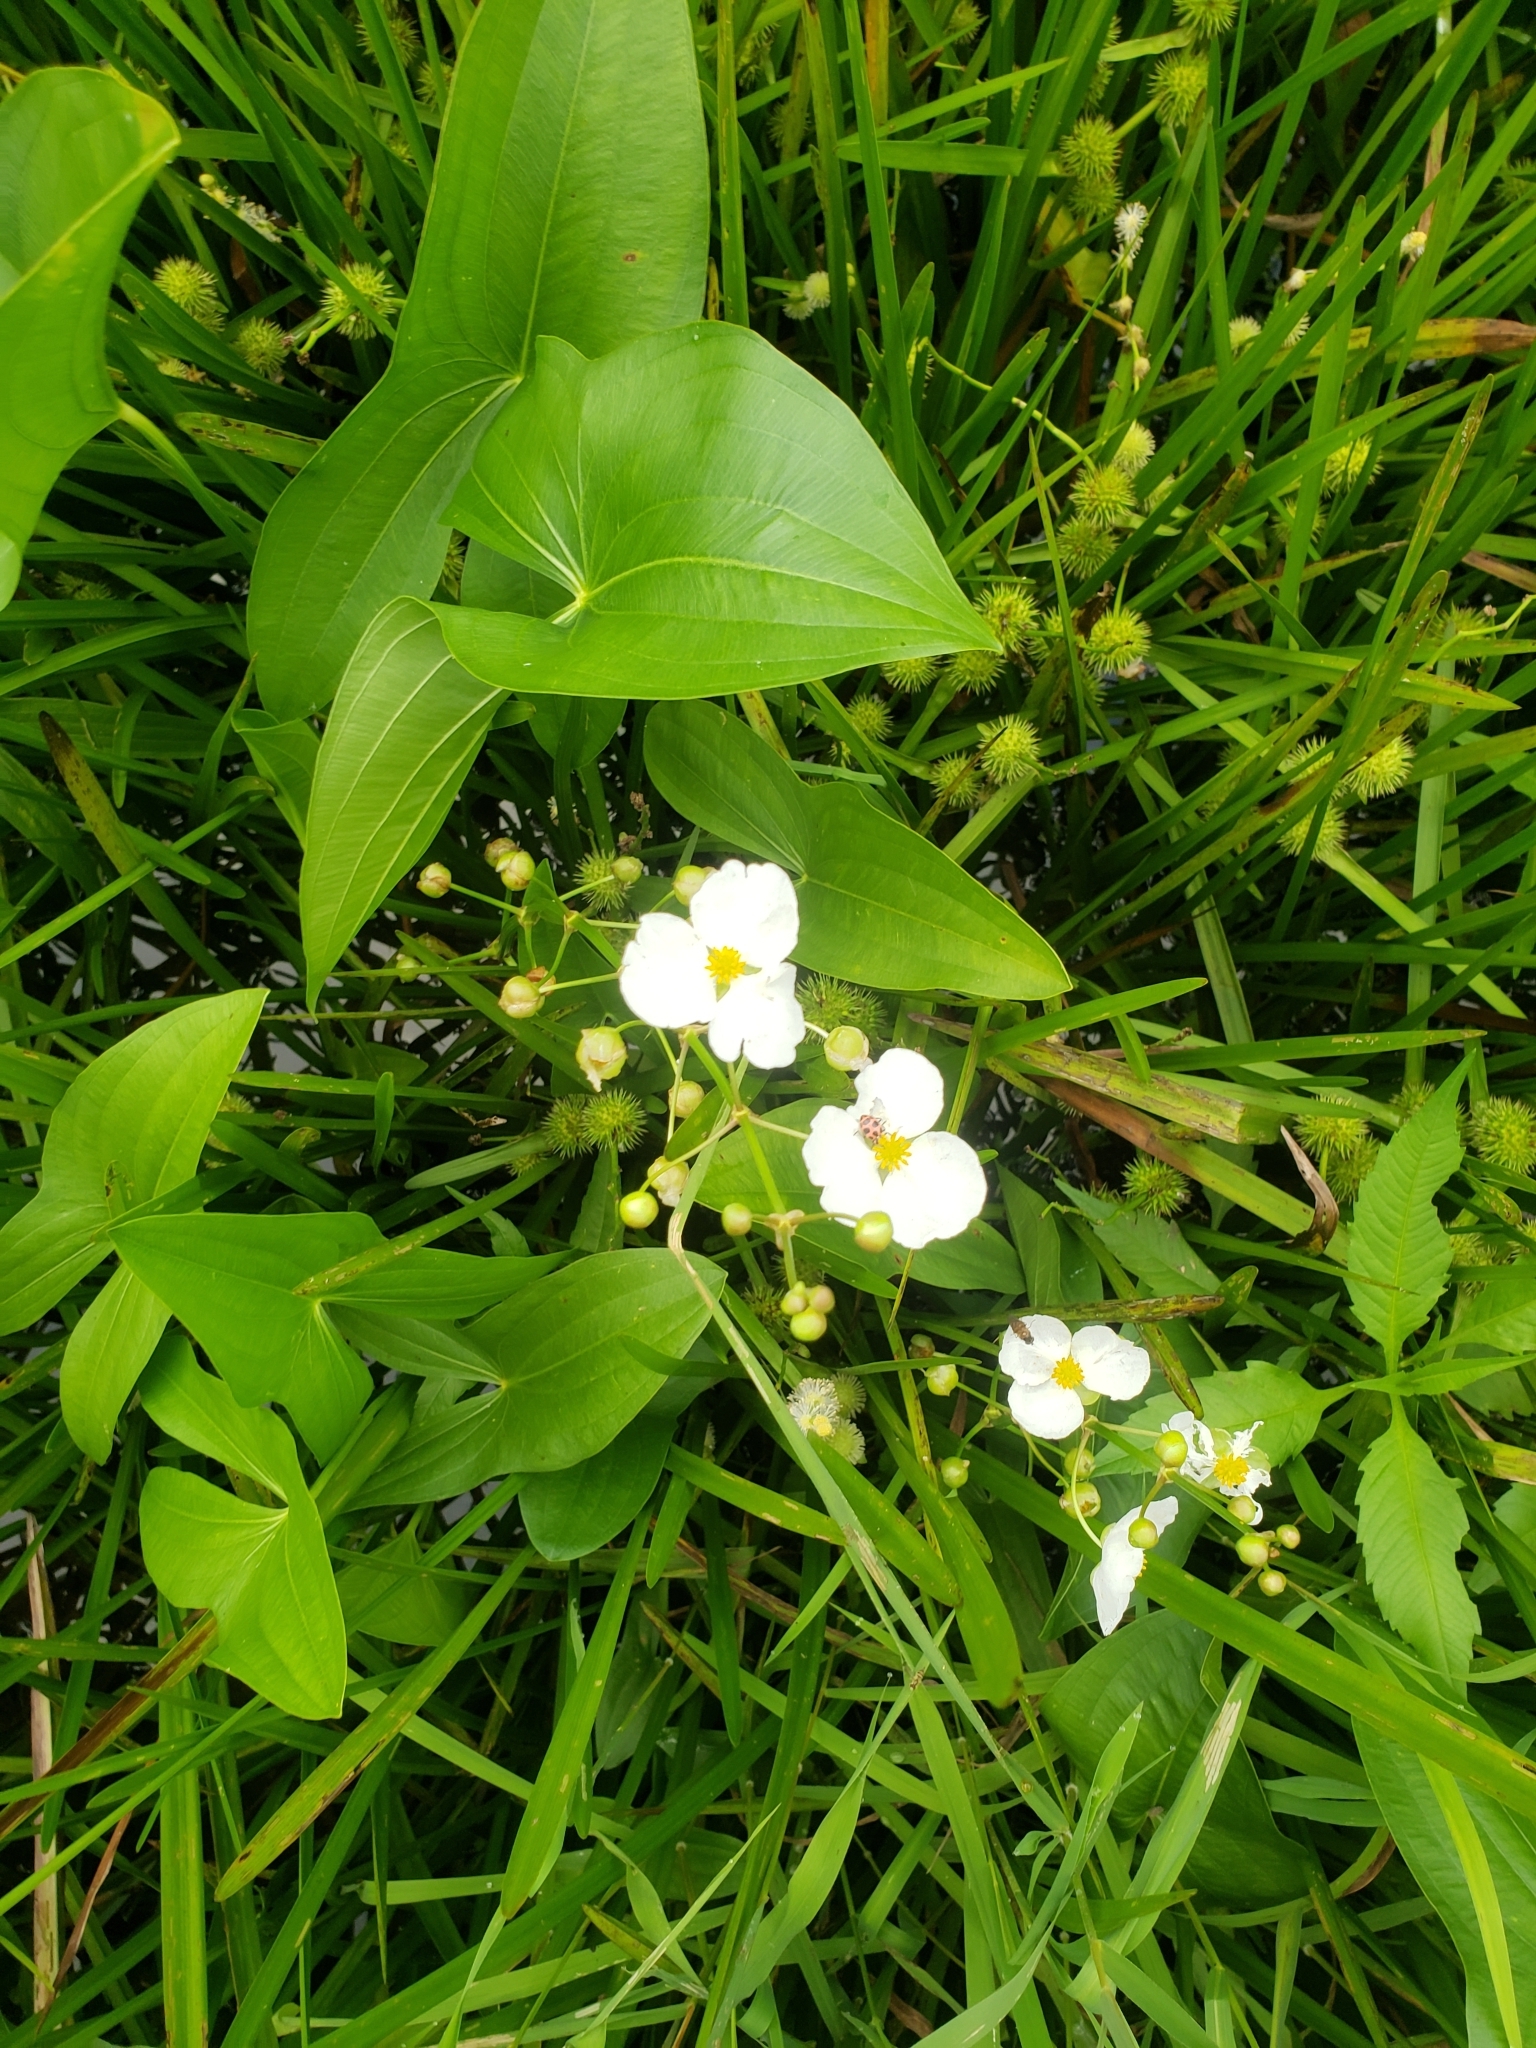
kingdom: Plantae
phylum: Tracheophyta
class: Liliopsida
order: Alismatales
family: Alismataceae
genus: Sagittaria
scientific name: Sagittaria latifolia
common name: Duck-potato
